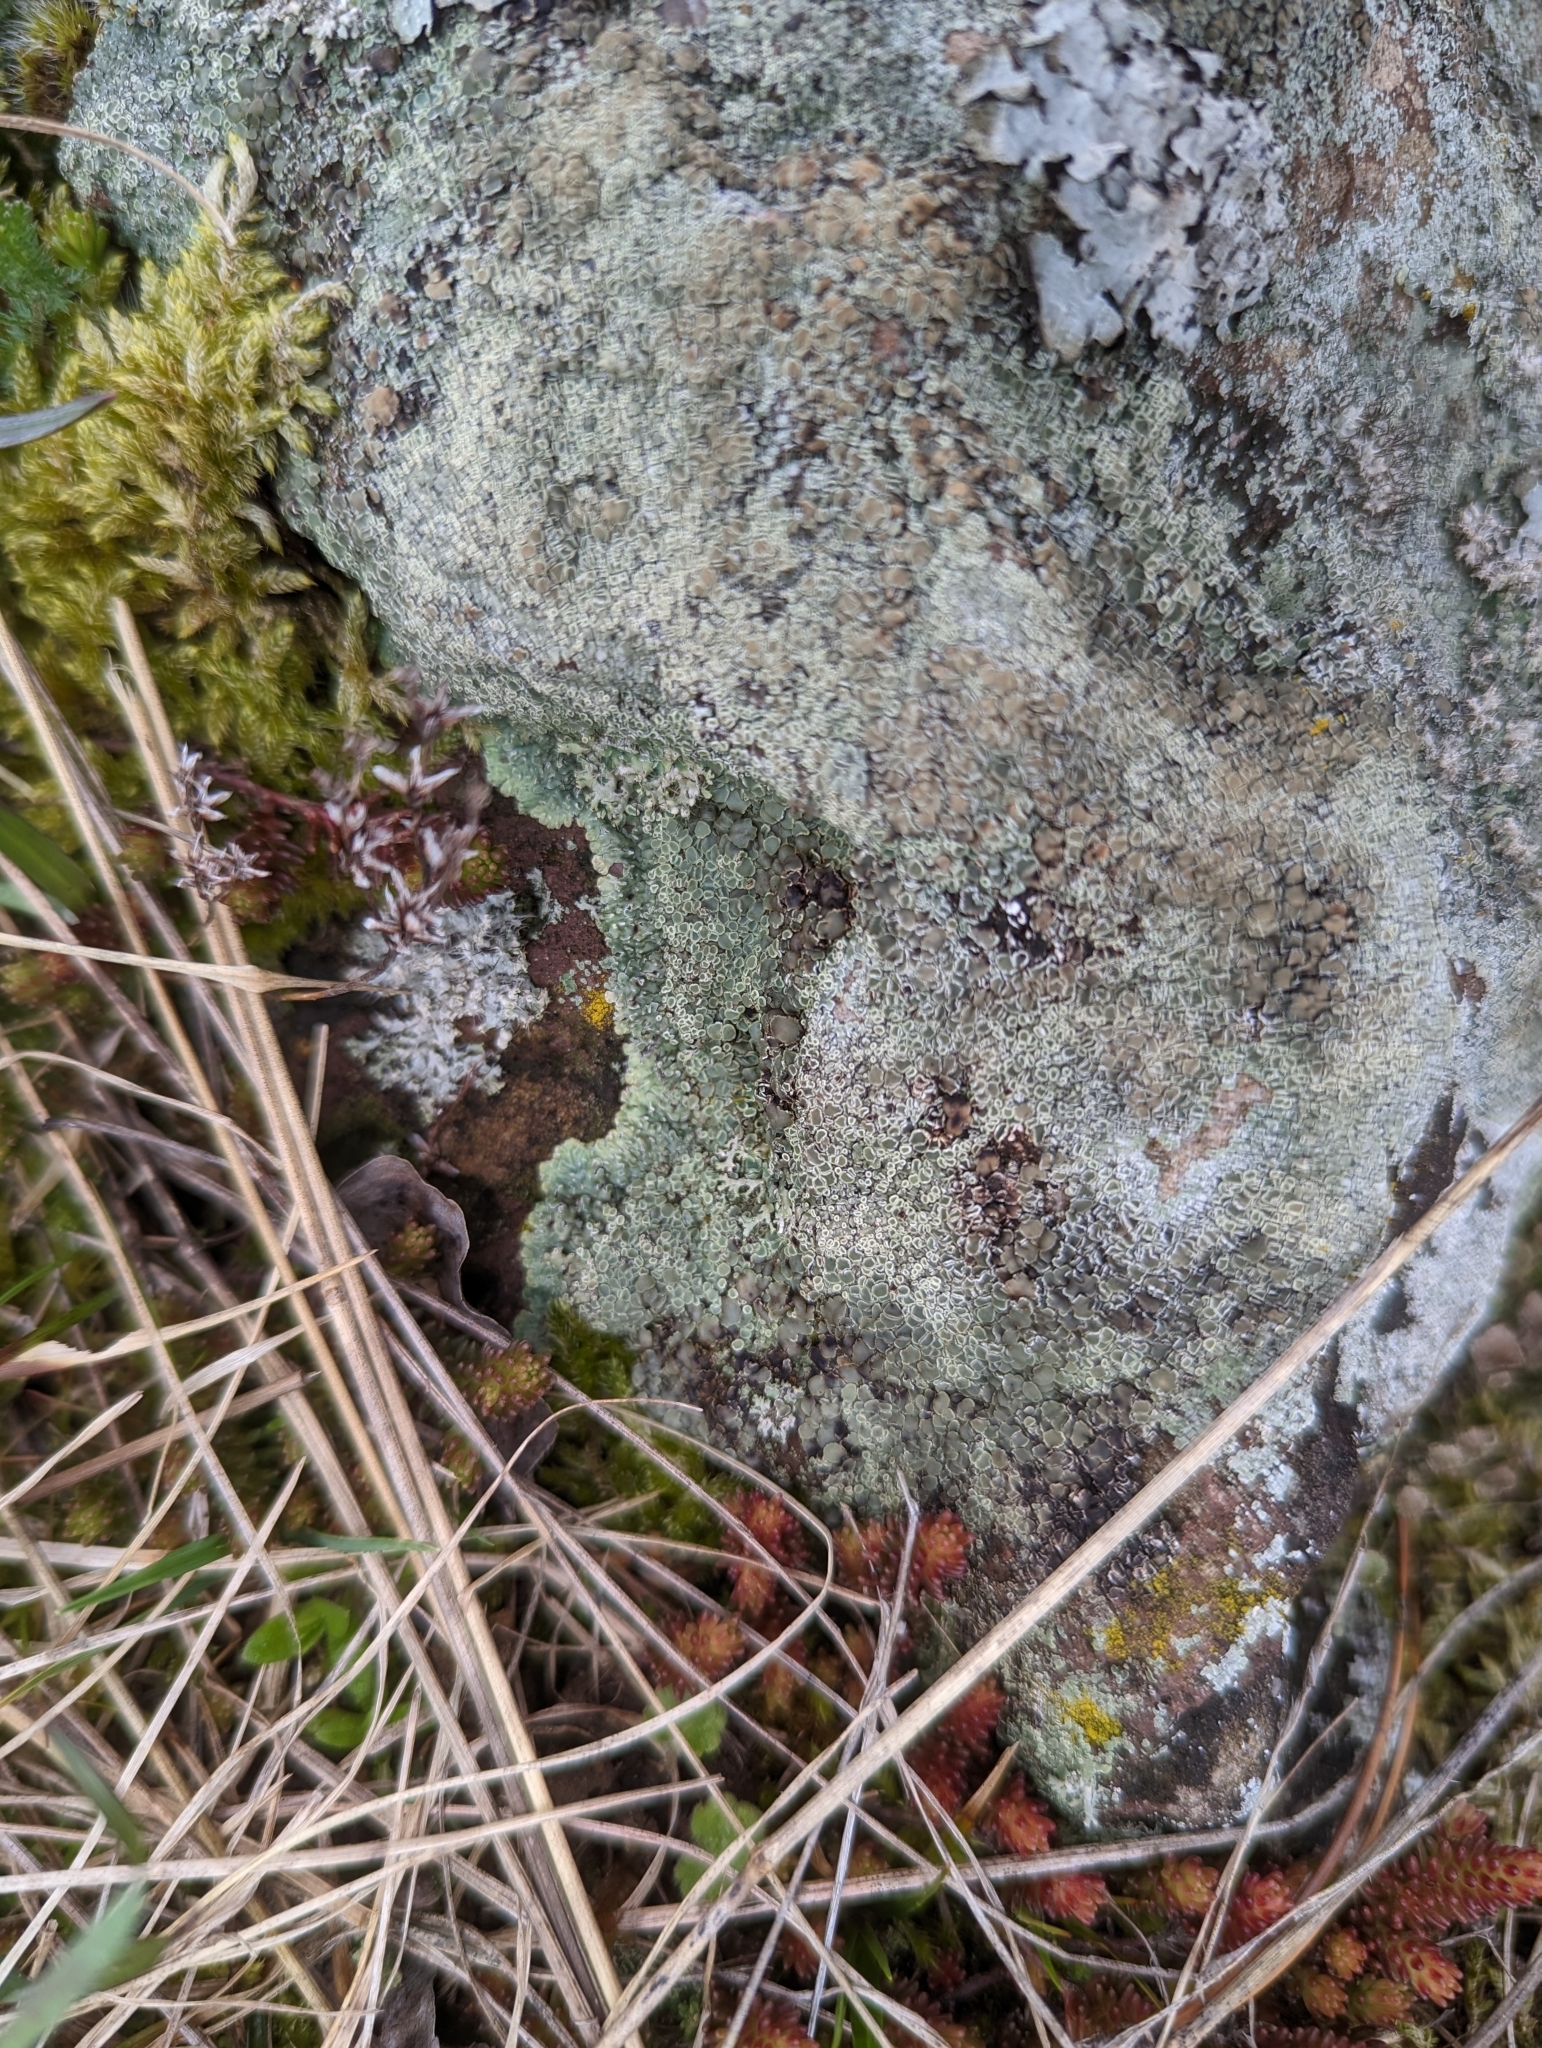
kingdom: Fungi
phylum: Ascomycota
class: Lecanoromycetes
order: Lecanorales
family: Lecanoraceae
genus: Protoparmeliopsis
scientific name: Protoparmeliopsis muralis
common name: Stonewall rim lichen
